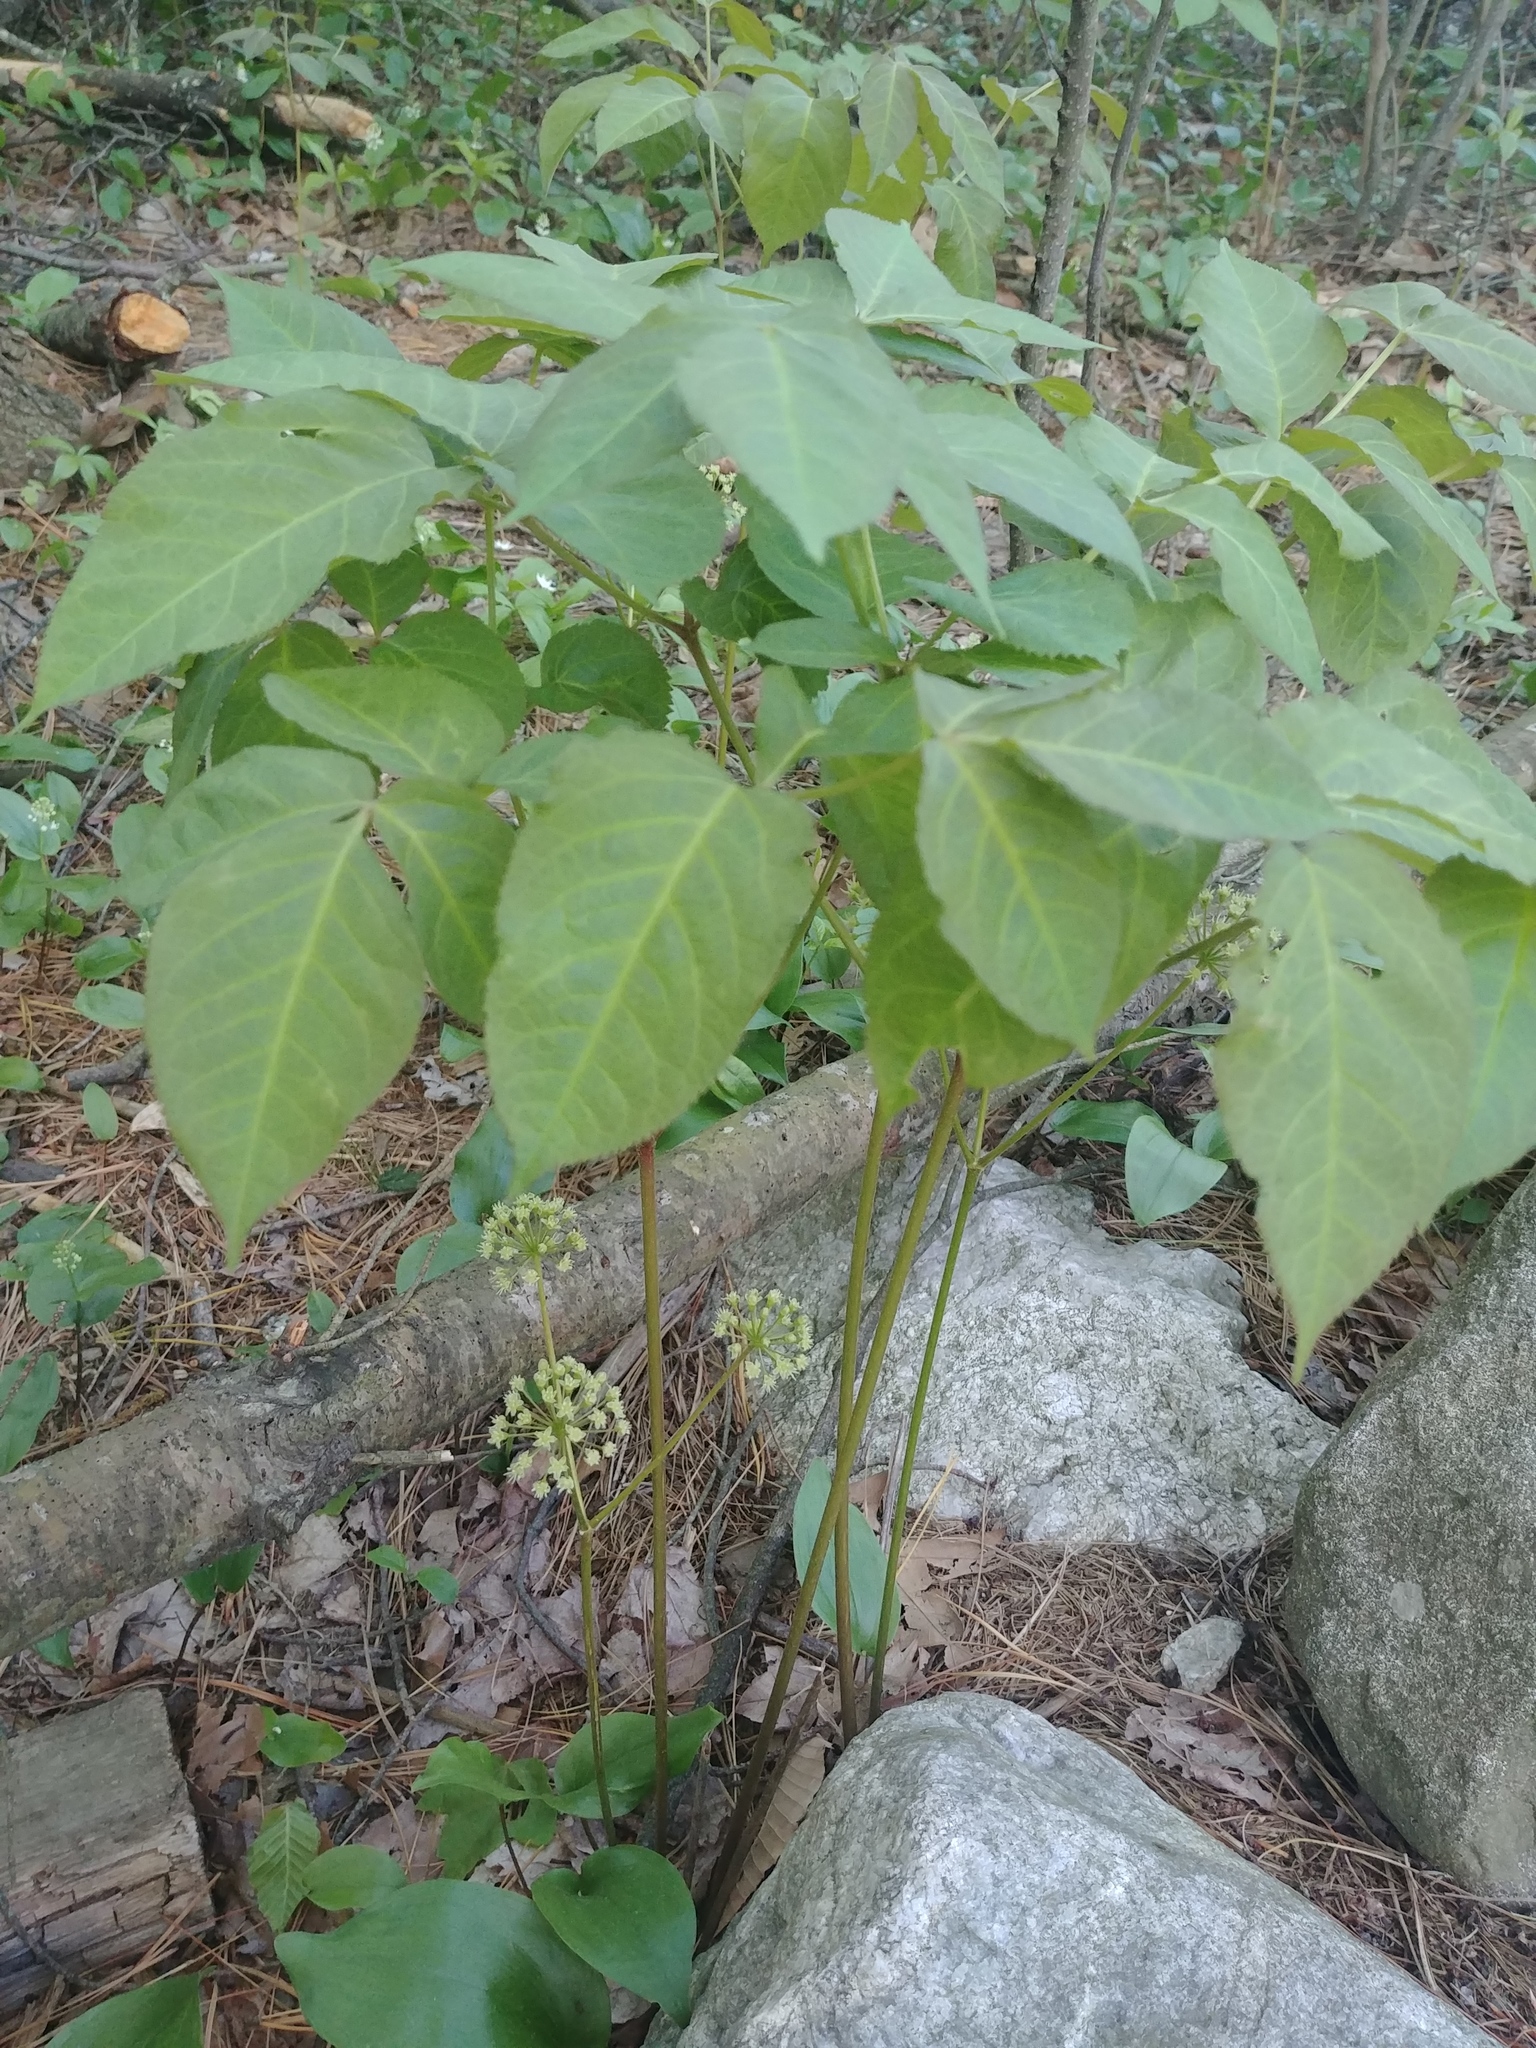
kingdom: Plantae
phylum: Tracheophyta
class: Magnoliopsida
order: Apiales
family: Araliaceae
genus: Aralia
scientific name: Aralia nudicaulis
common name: Wild sarsaparilla
